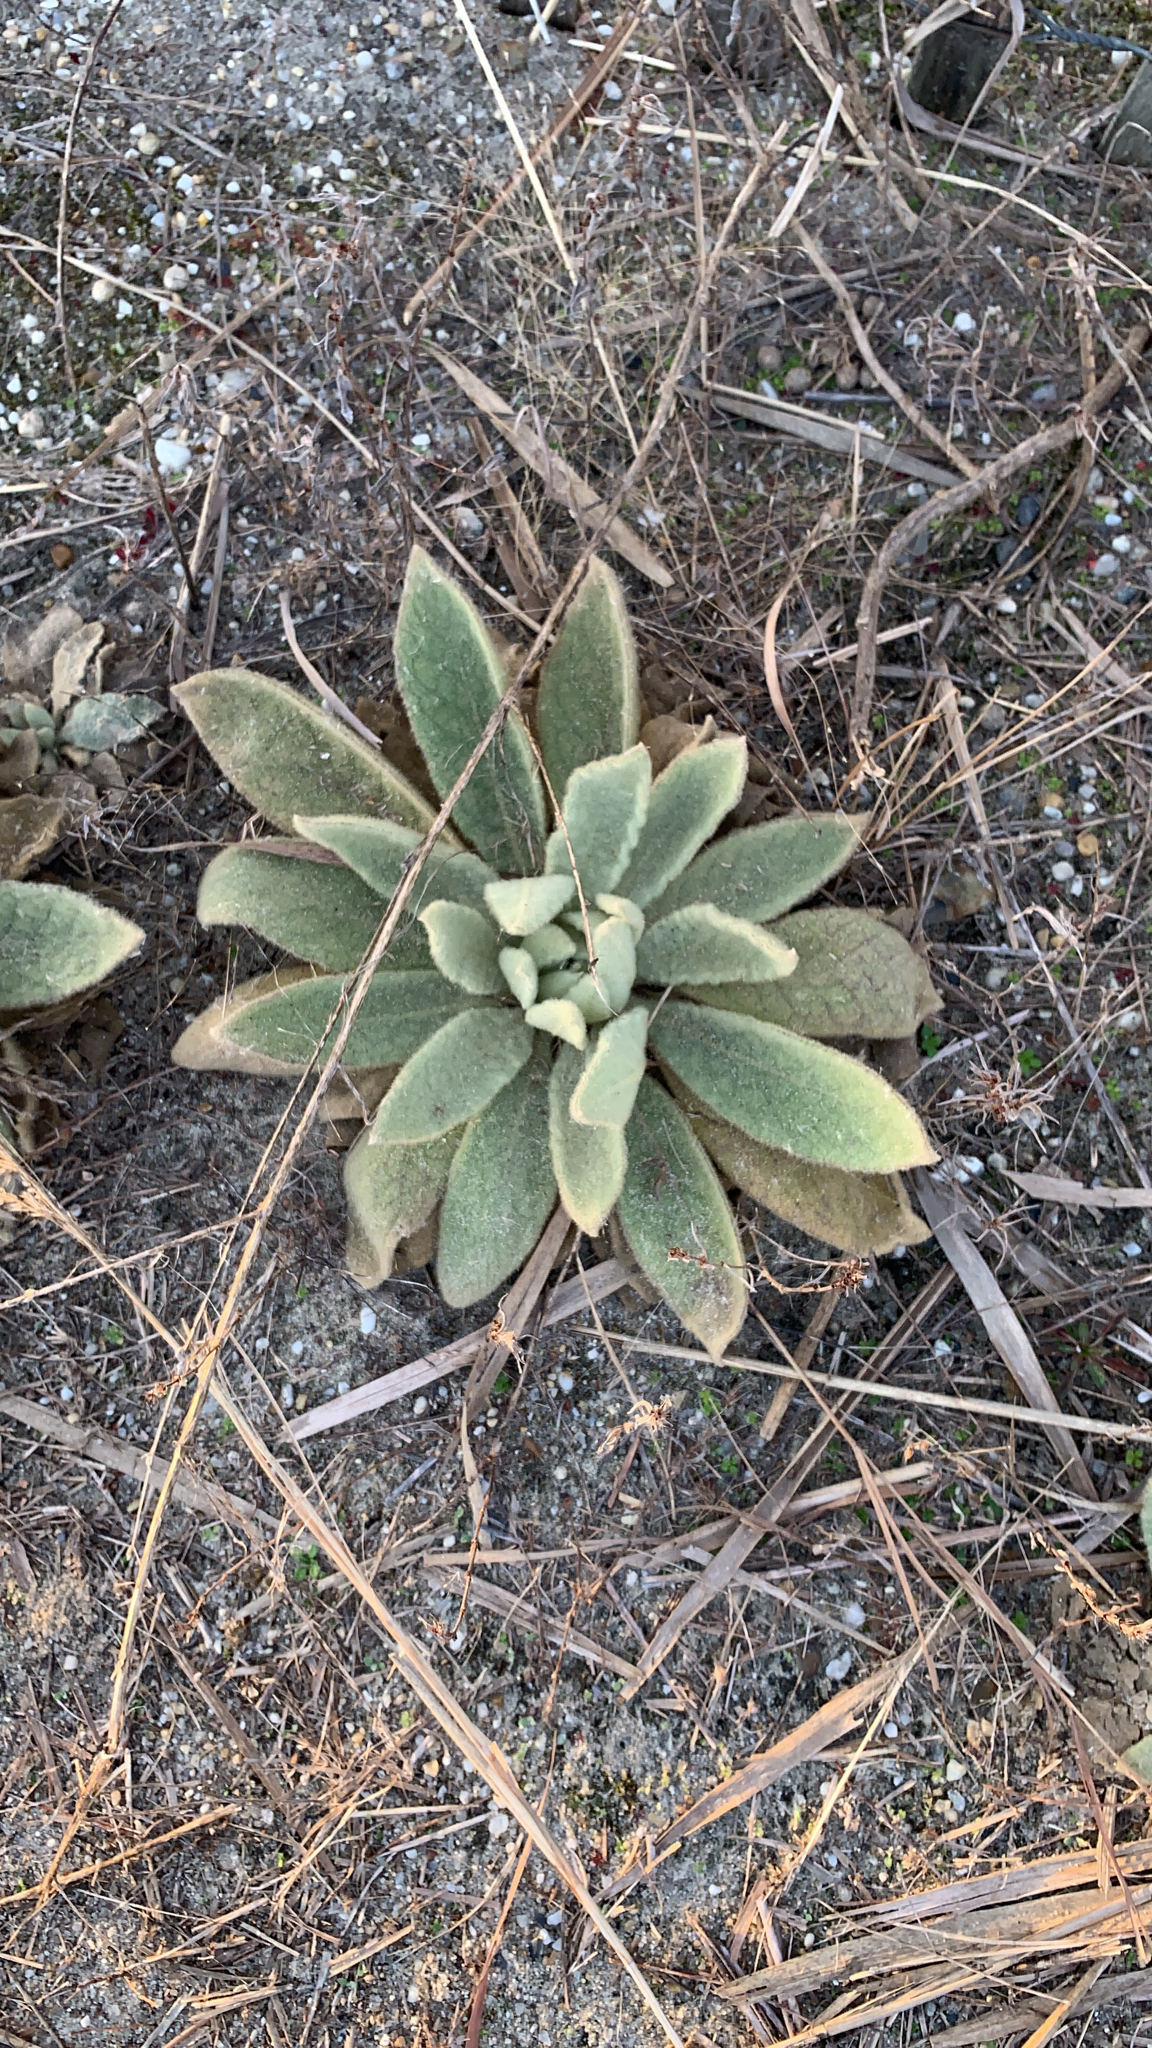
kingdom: Plantae
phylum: Tracheophyta
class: Magnoliopsida
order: Lamiales
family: Scrophulariaceae
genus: Verbascum
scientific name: Verbascum thapsus
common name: Common mullein
